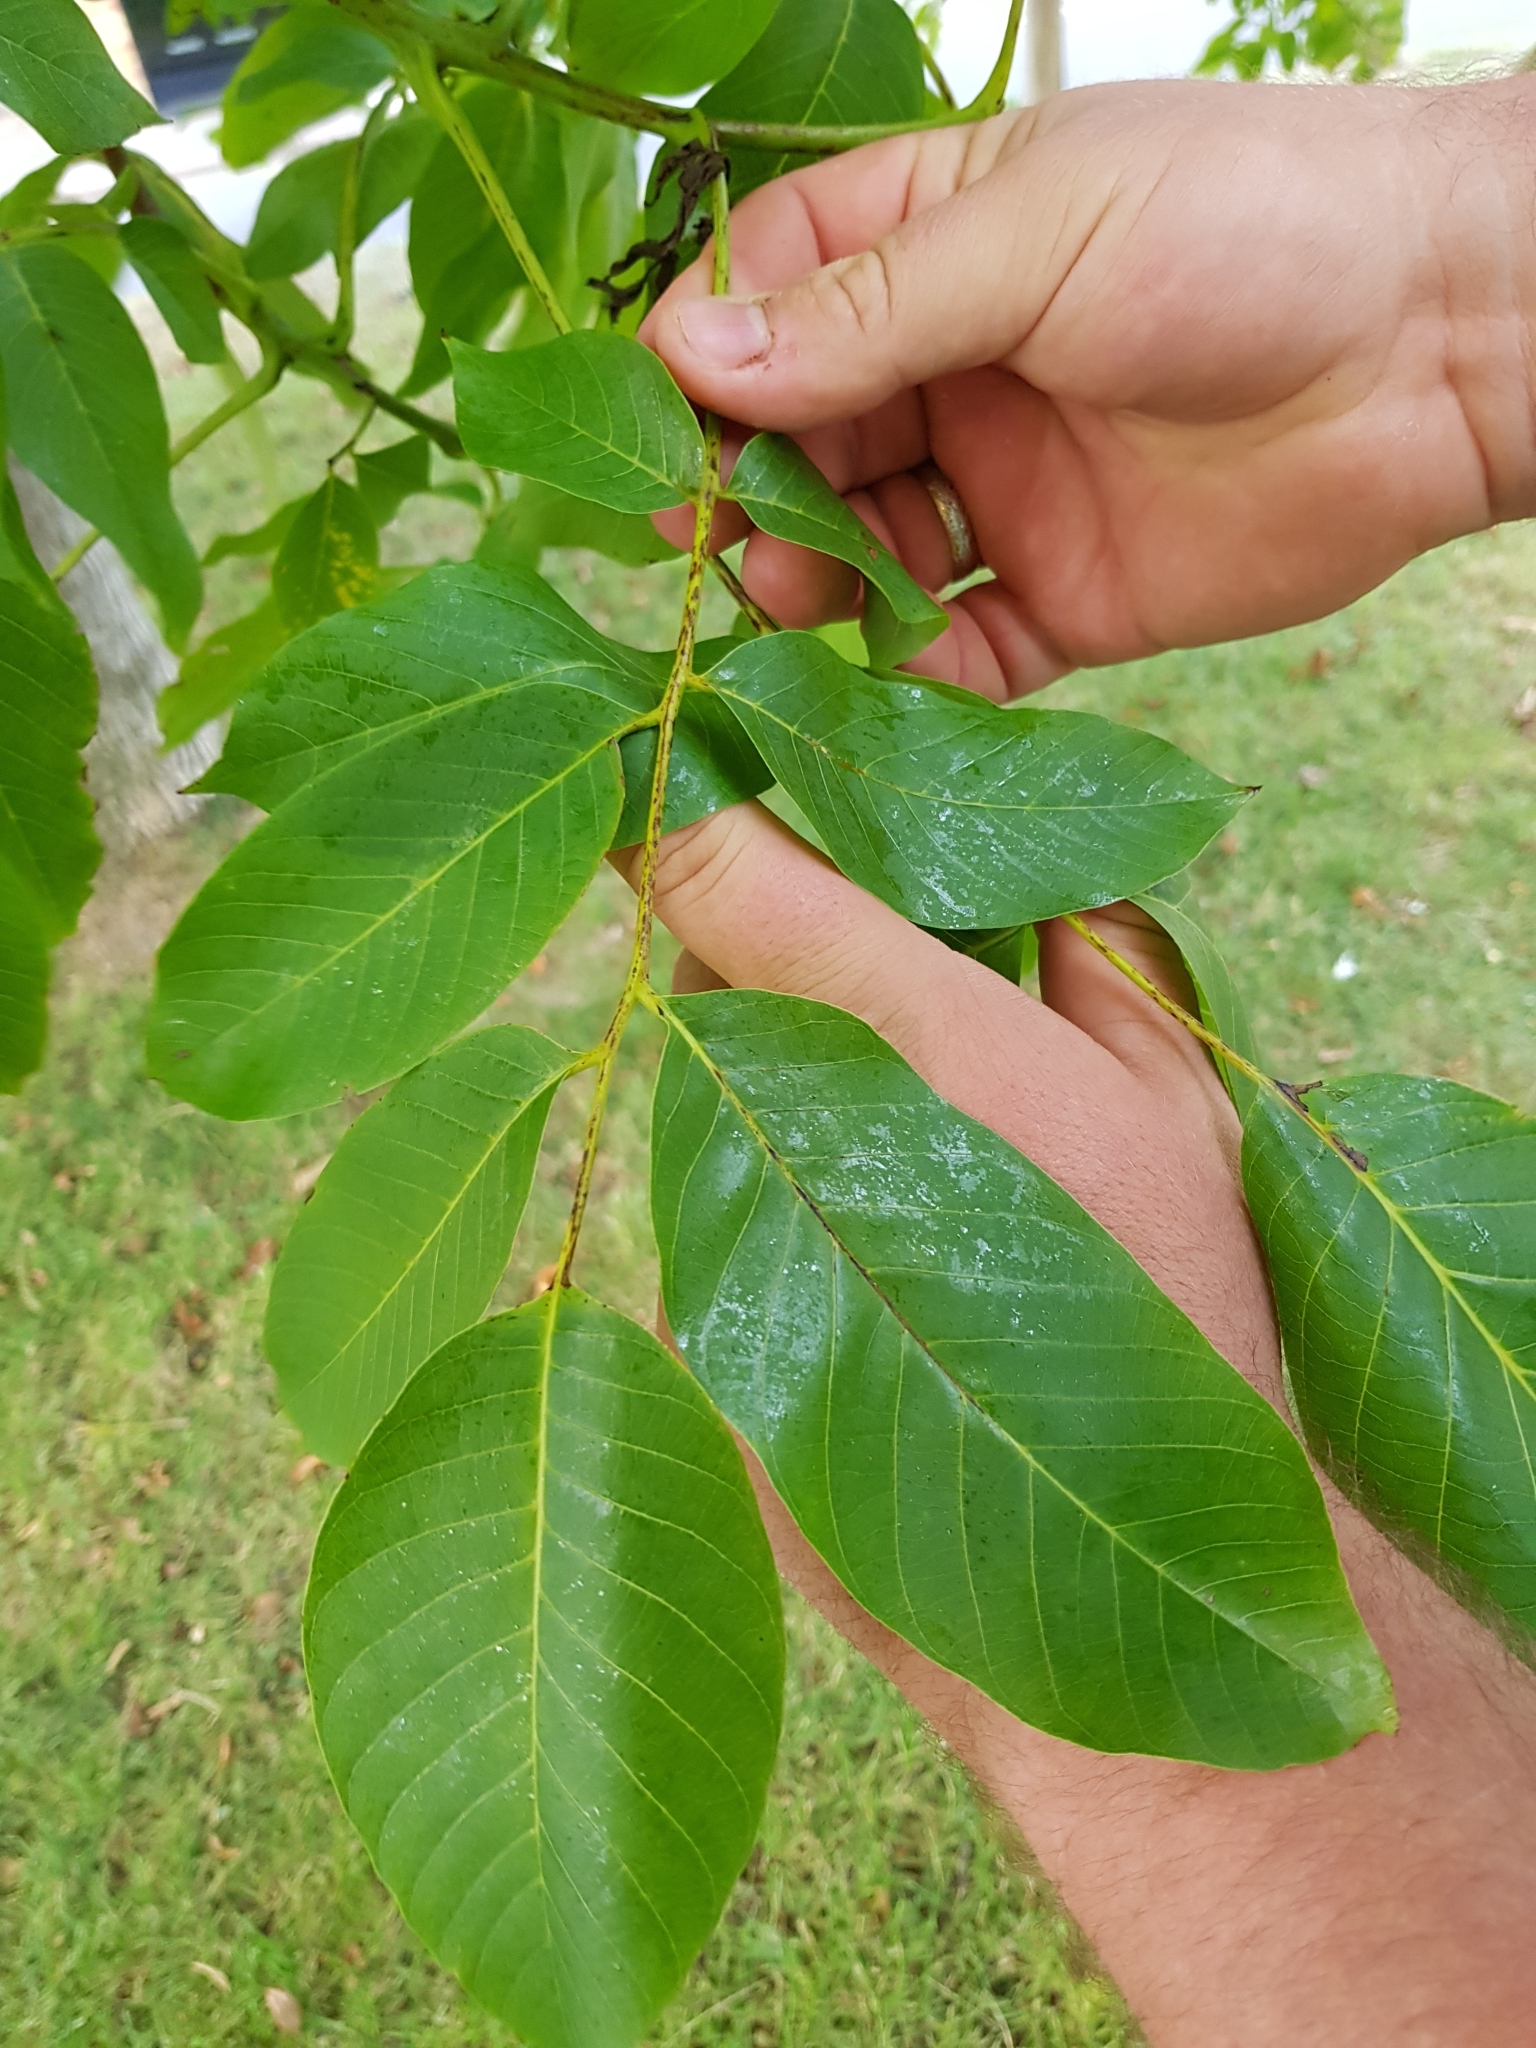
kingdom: Plantae
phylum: Tracheophyta
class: Magnoliopsida
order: Fagales
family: Juglandaceae
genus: Juglans
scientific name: Juglans regia
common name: Walnut
